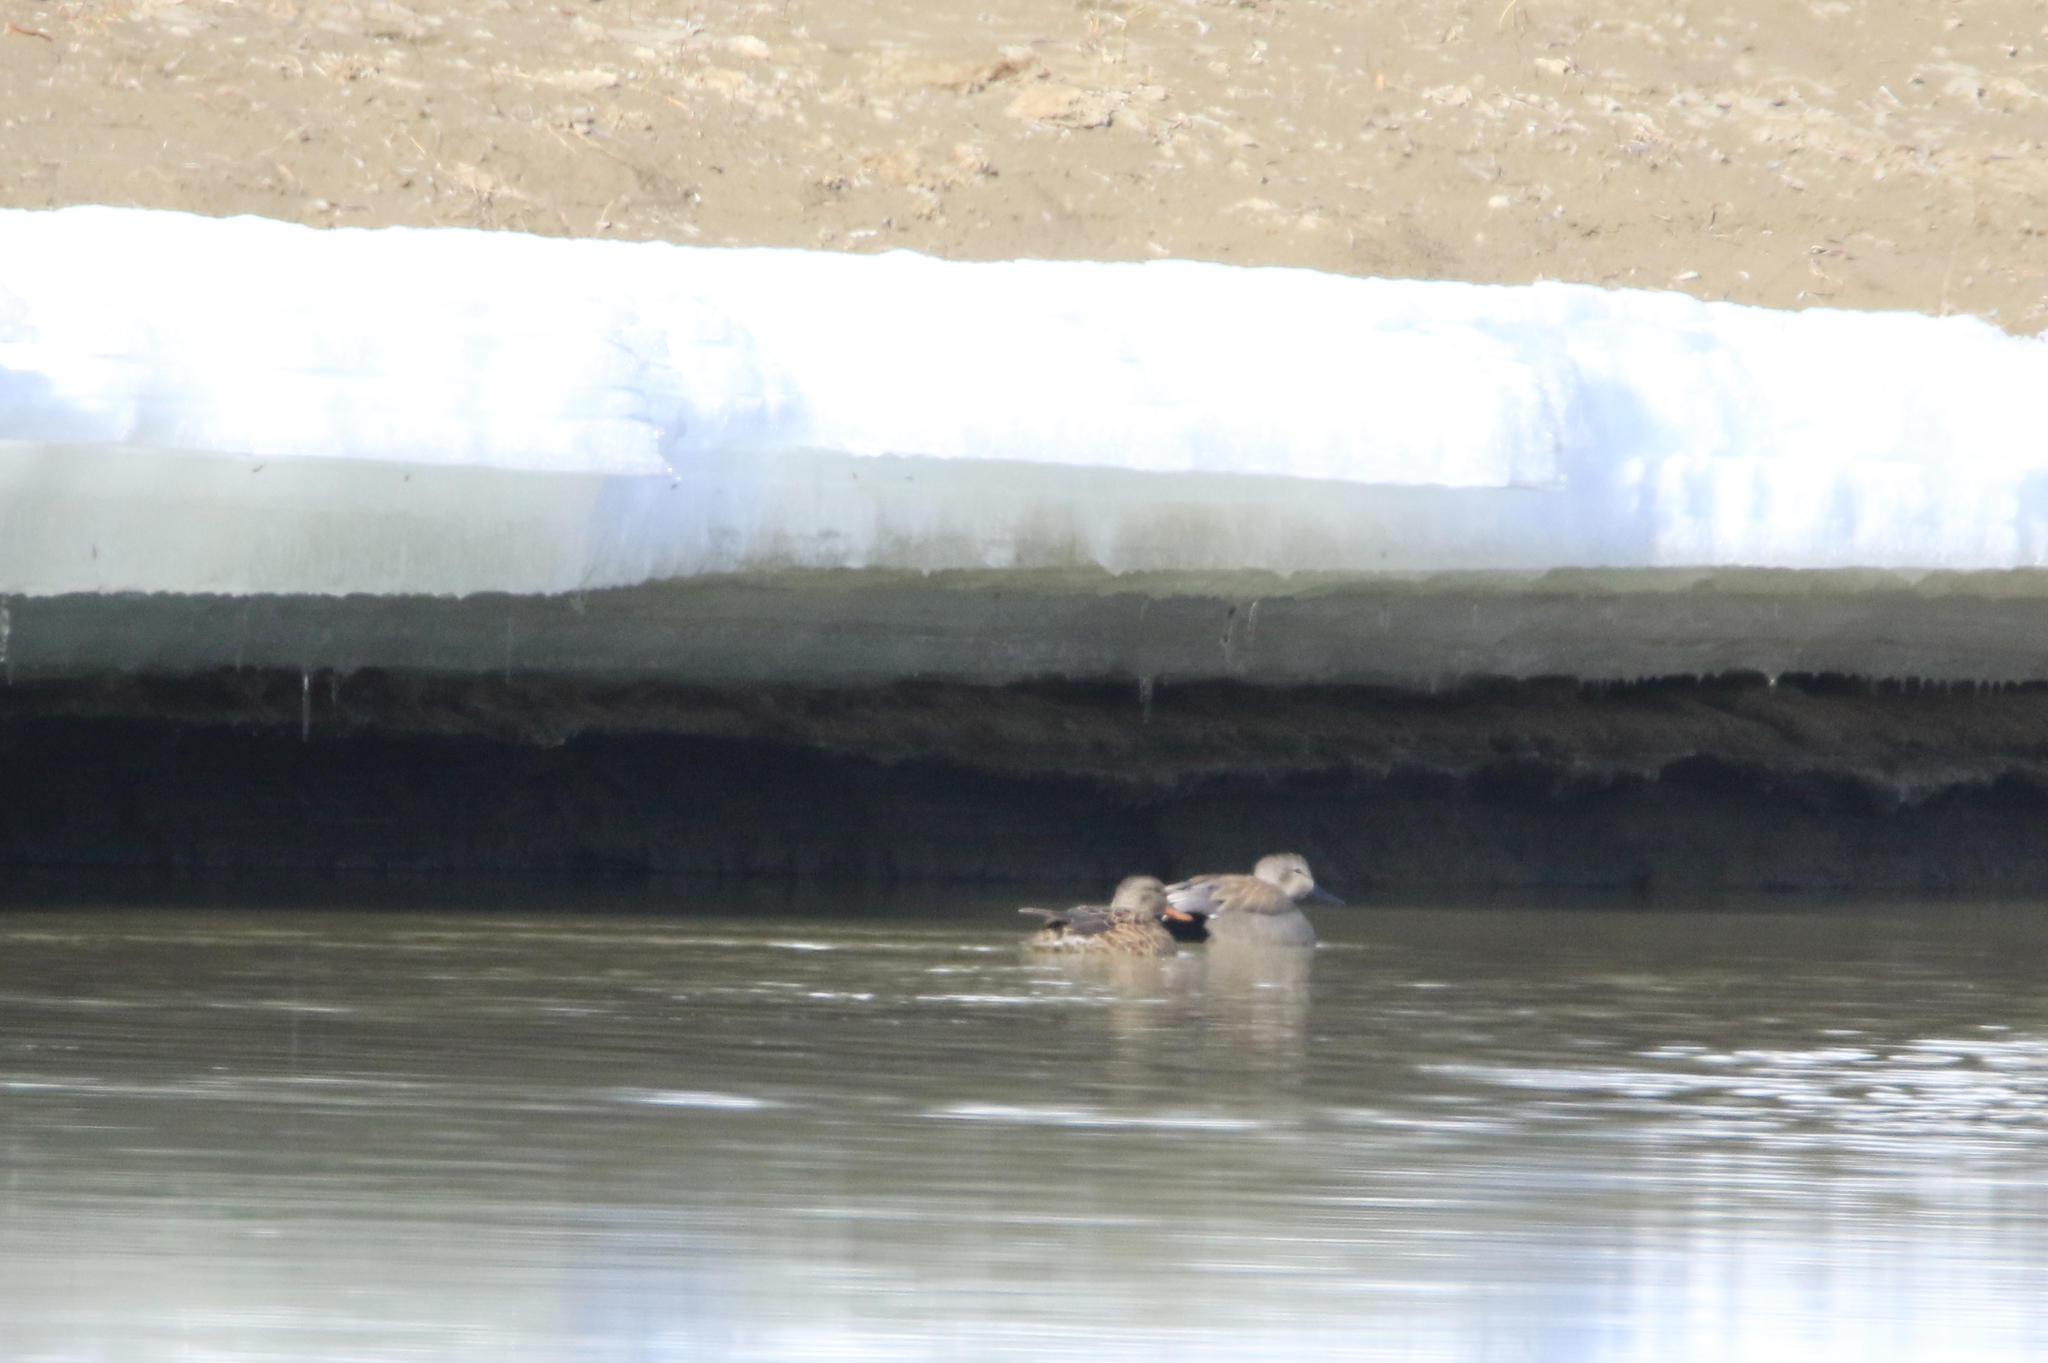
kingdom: Animalia
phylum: Chordata
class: Aves
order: Anseriformes
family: Anatidae
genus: Mareca
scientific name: Mareca strepera
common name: Gadwall
